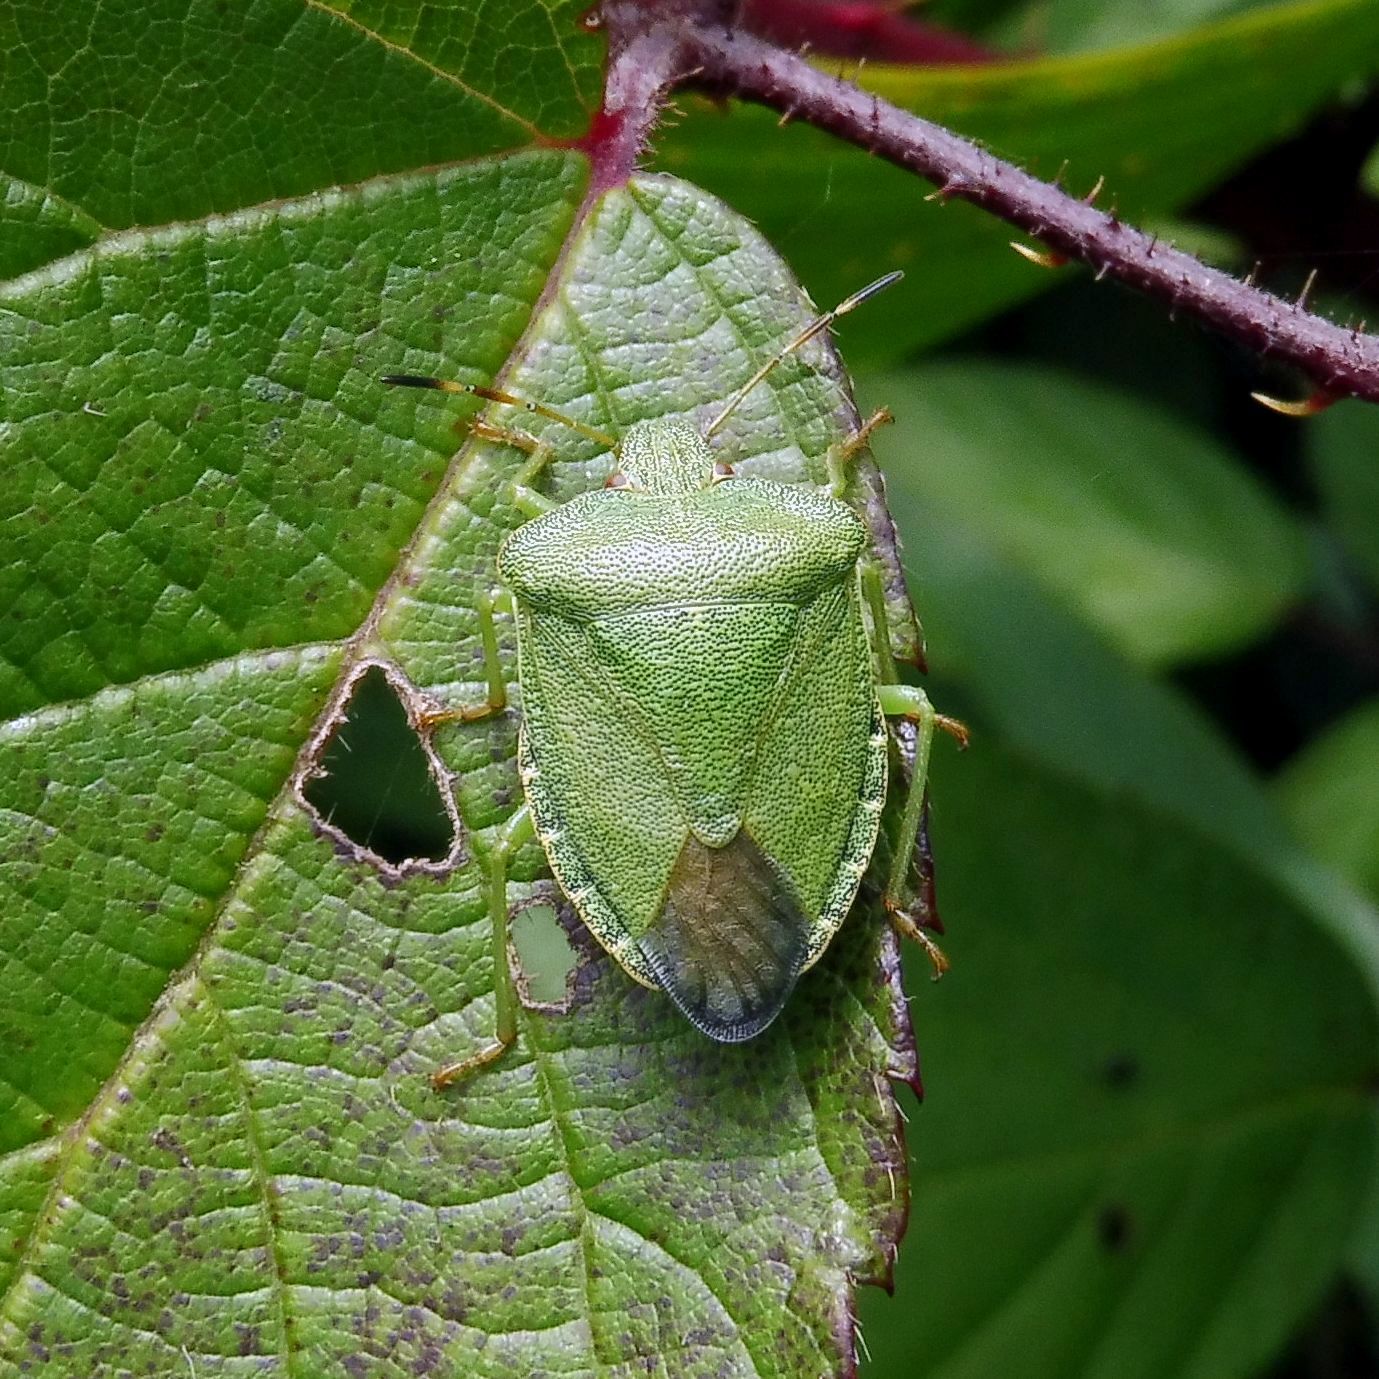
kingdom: Animalia
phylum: Arthropoda
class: Insecta
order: Hemiptera
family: Pentatomidae
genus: Palomena
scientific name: Palomena prasina
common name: Green shieldbug
